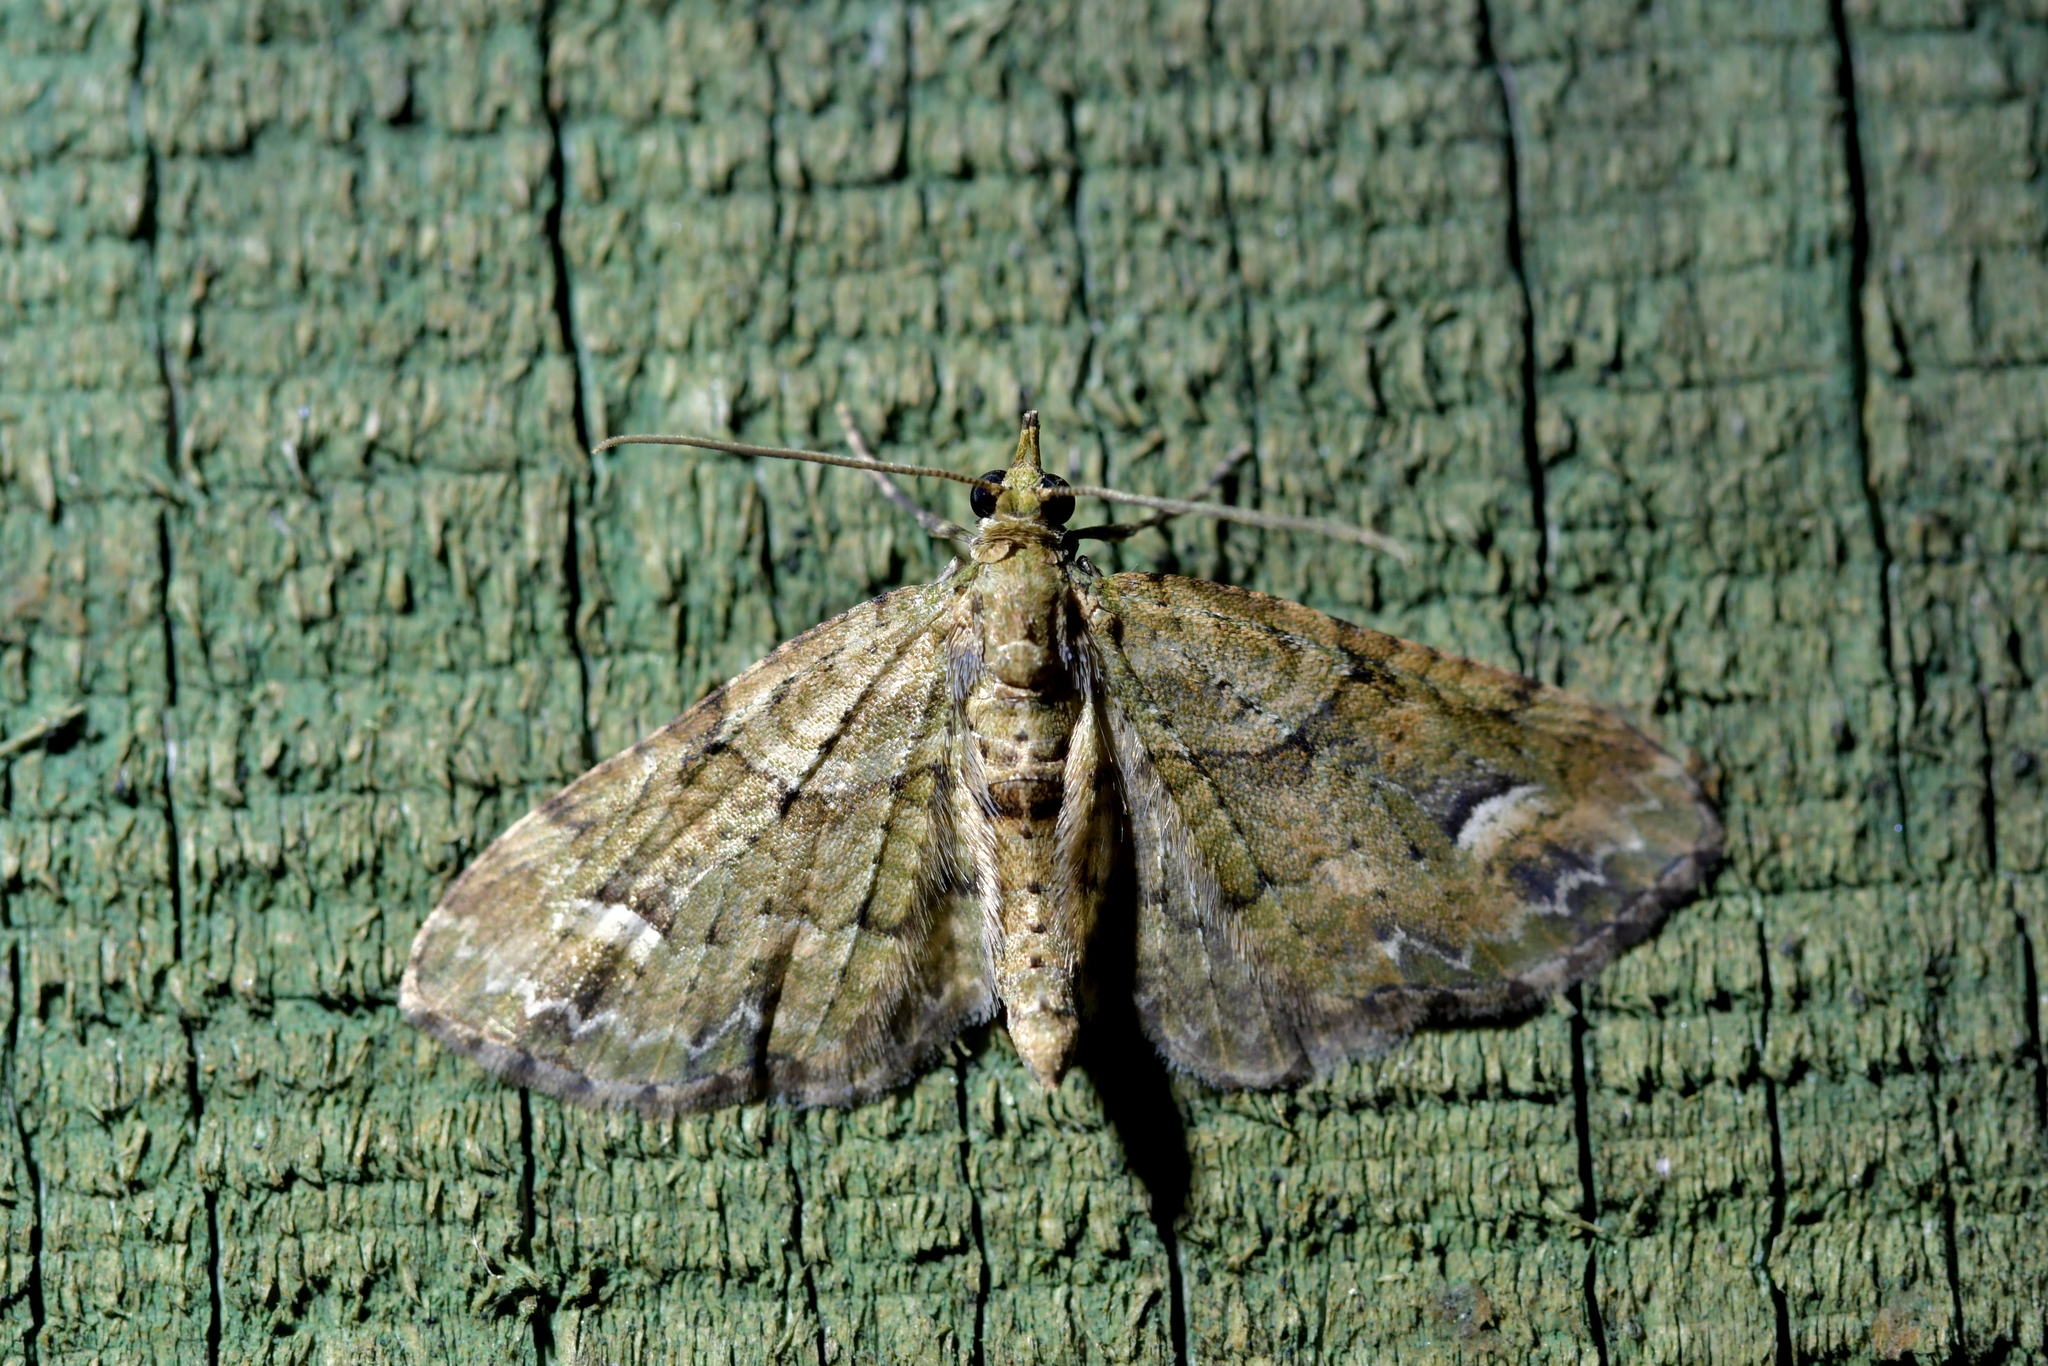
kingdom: Animalia
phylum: Arthropoda
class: Insecta
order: Lepidoptera
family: Geometridae
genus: Idaea
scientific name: Idaea mutanda
